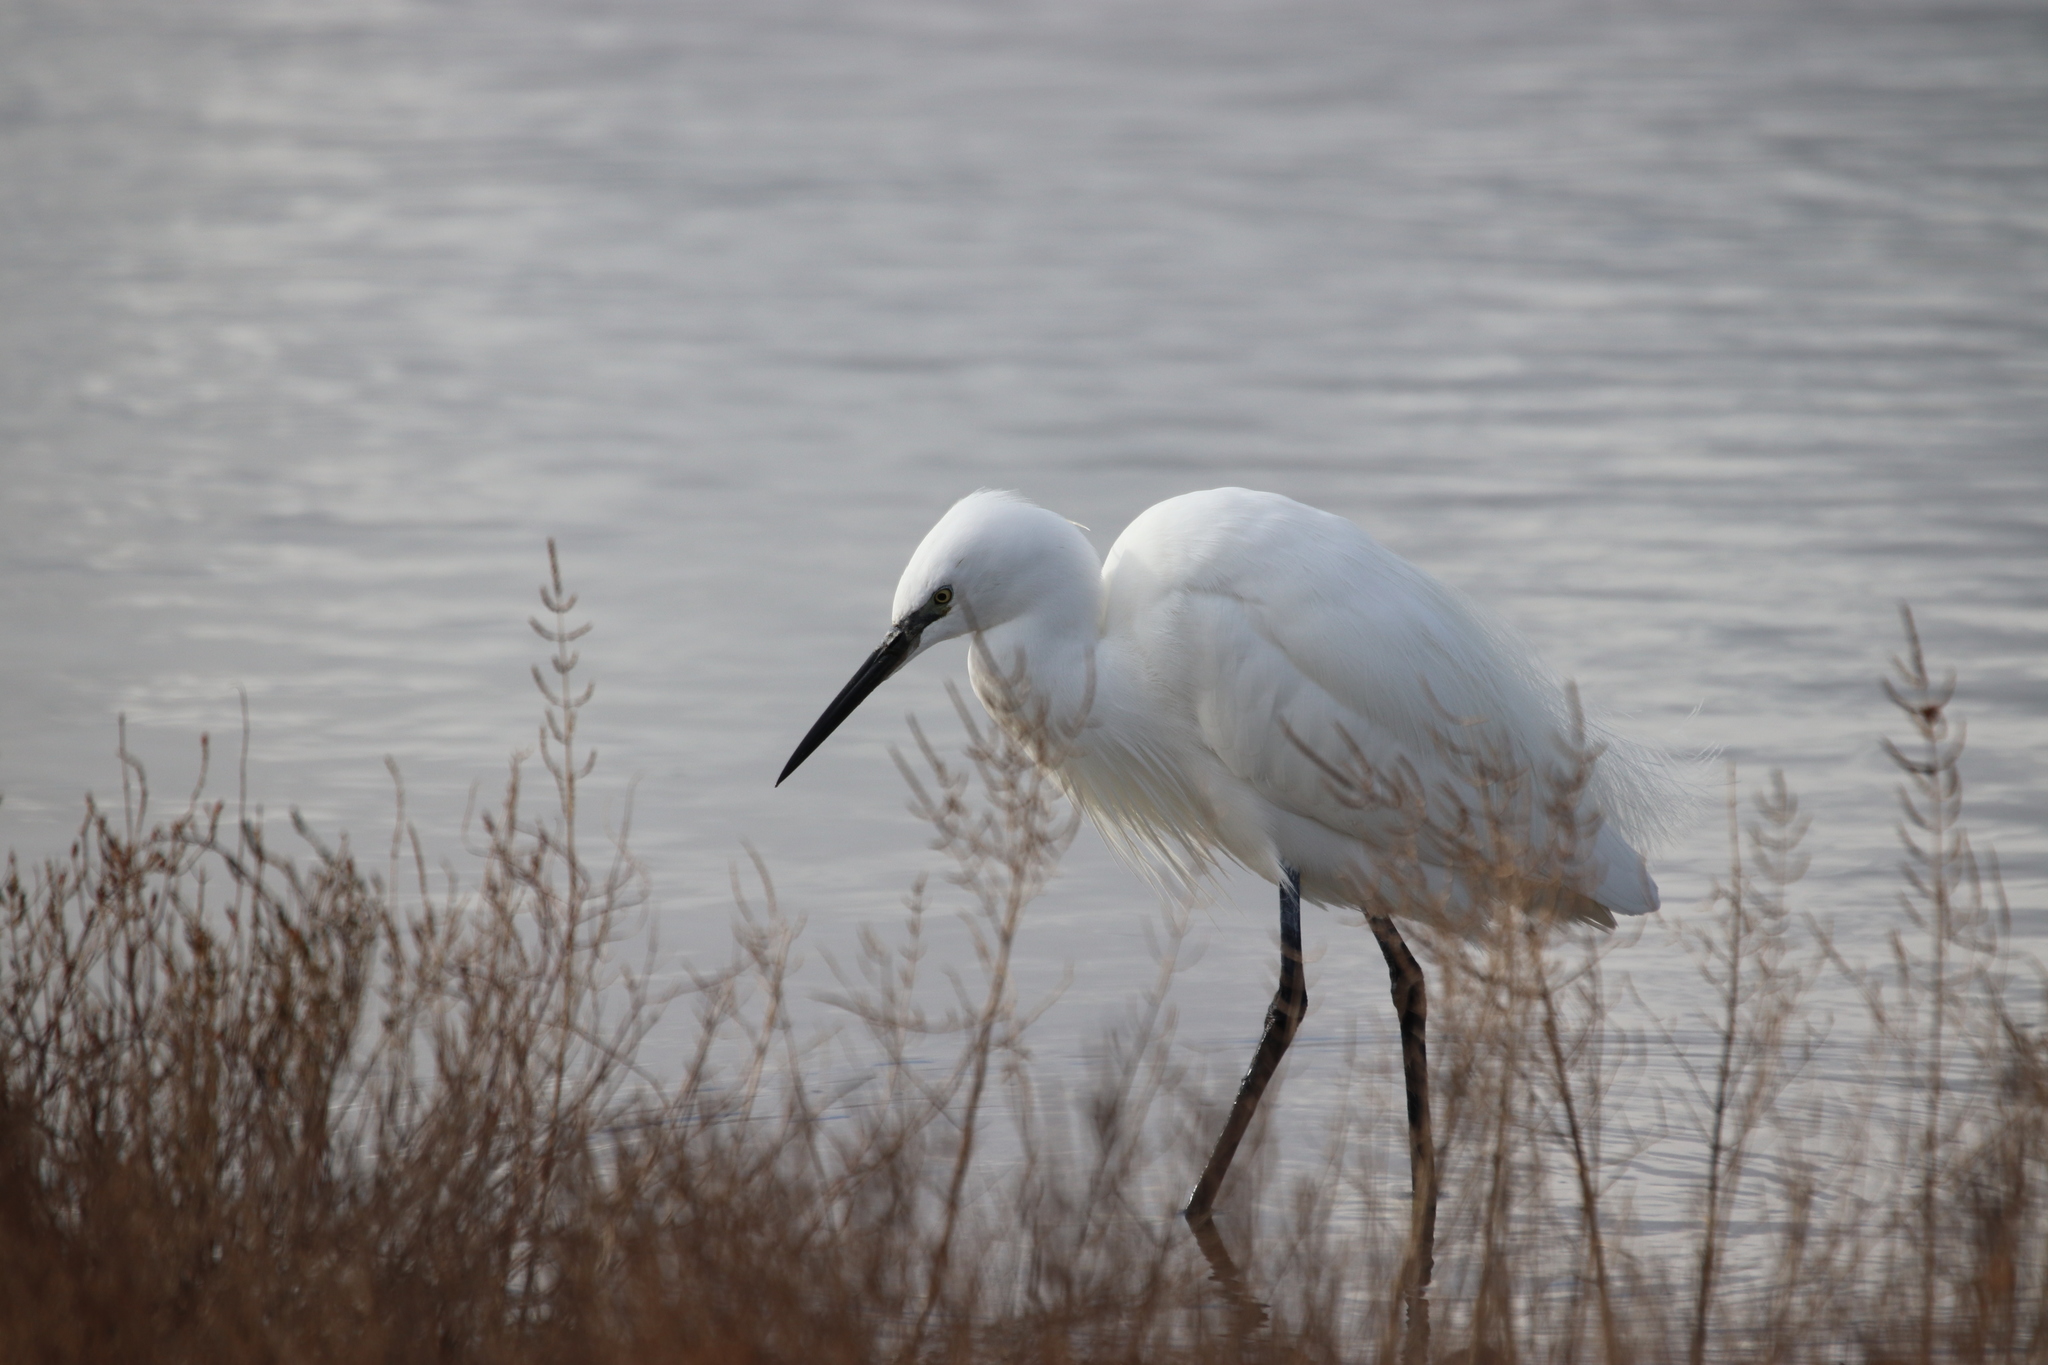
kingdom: Animalia
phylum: Chordata
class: Aves
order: Pelecaniformes
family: Ardeidae
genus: Egretta
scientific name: Egretta garzetta
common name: Little egret
